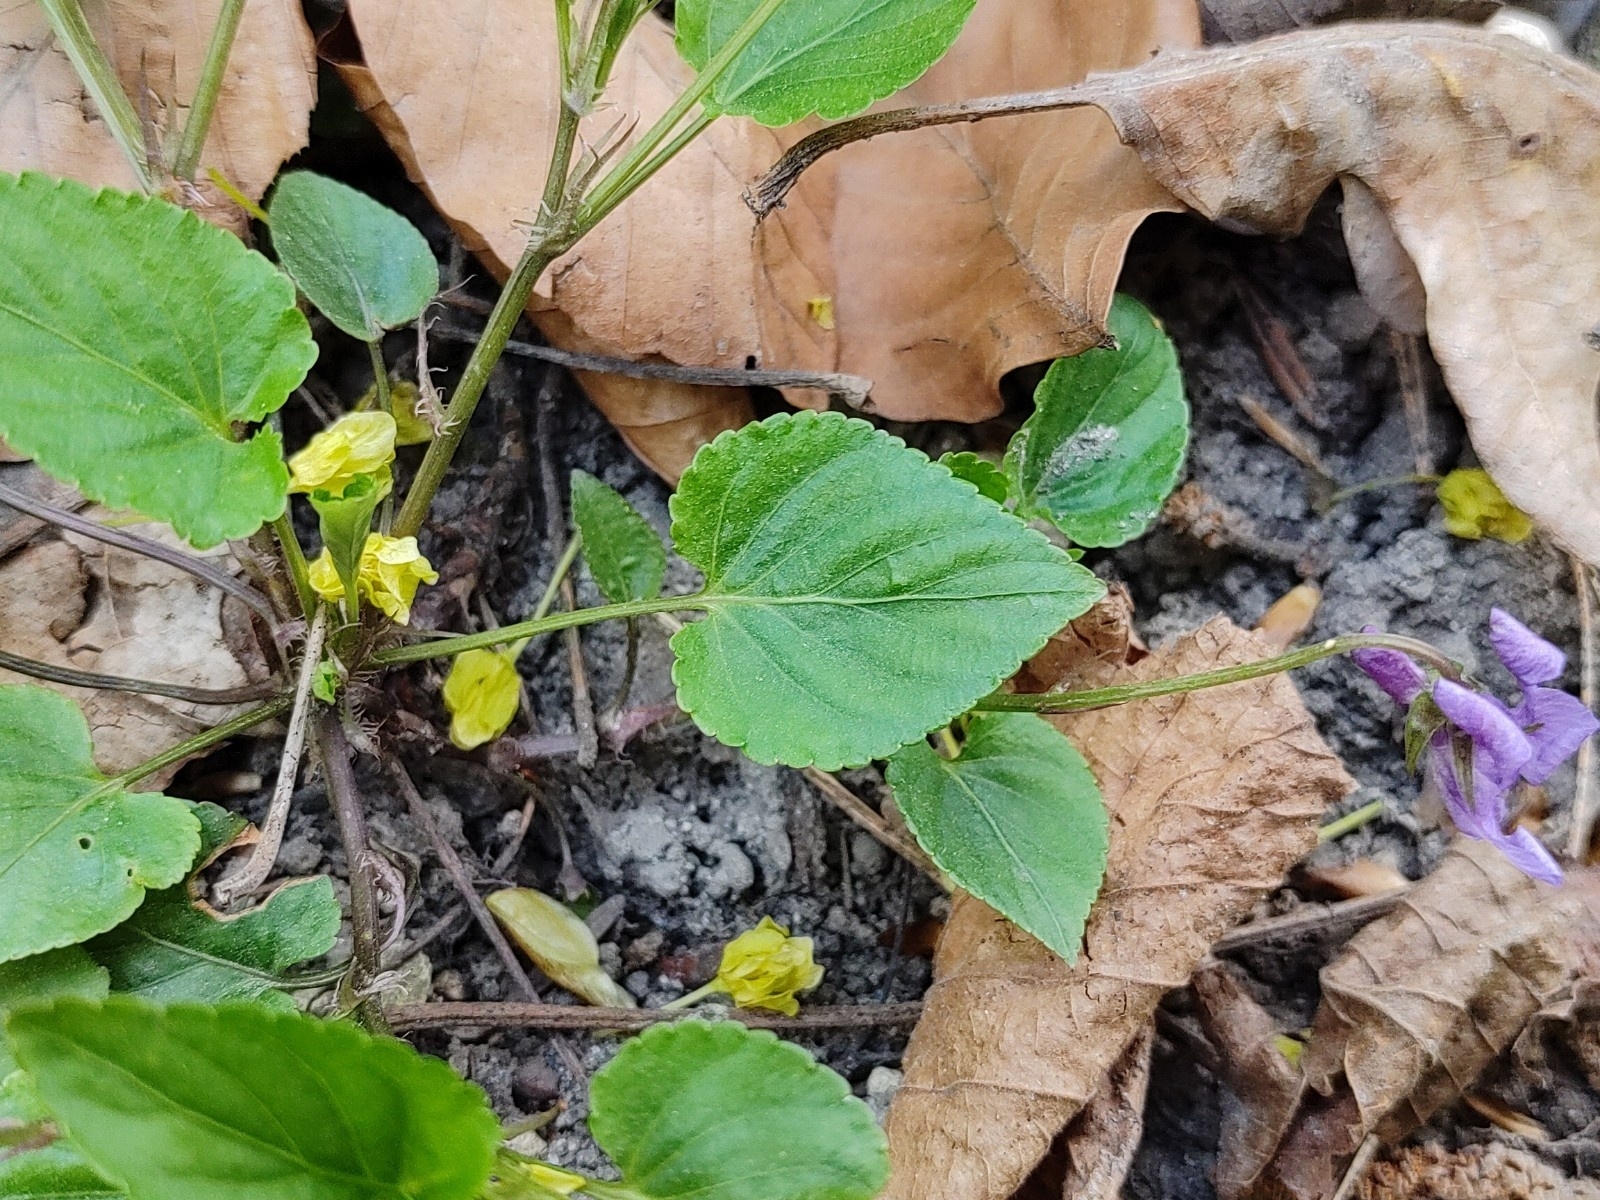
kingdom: Plantae
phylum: Tracheophyta
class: Magnoliopsida
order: Malpighiales
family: Violaceae
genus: Viola
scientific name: Viola reichenbachiana
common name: Early dog-violet
